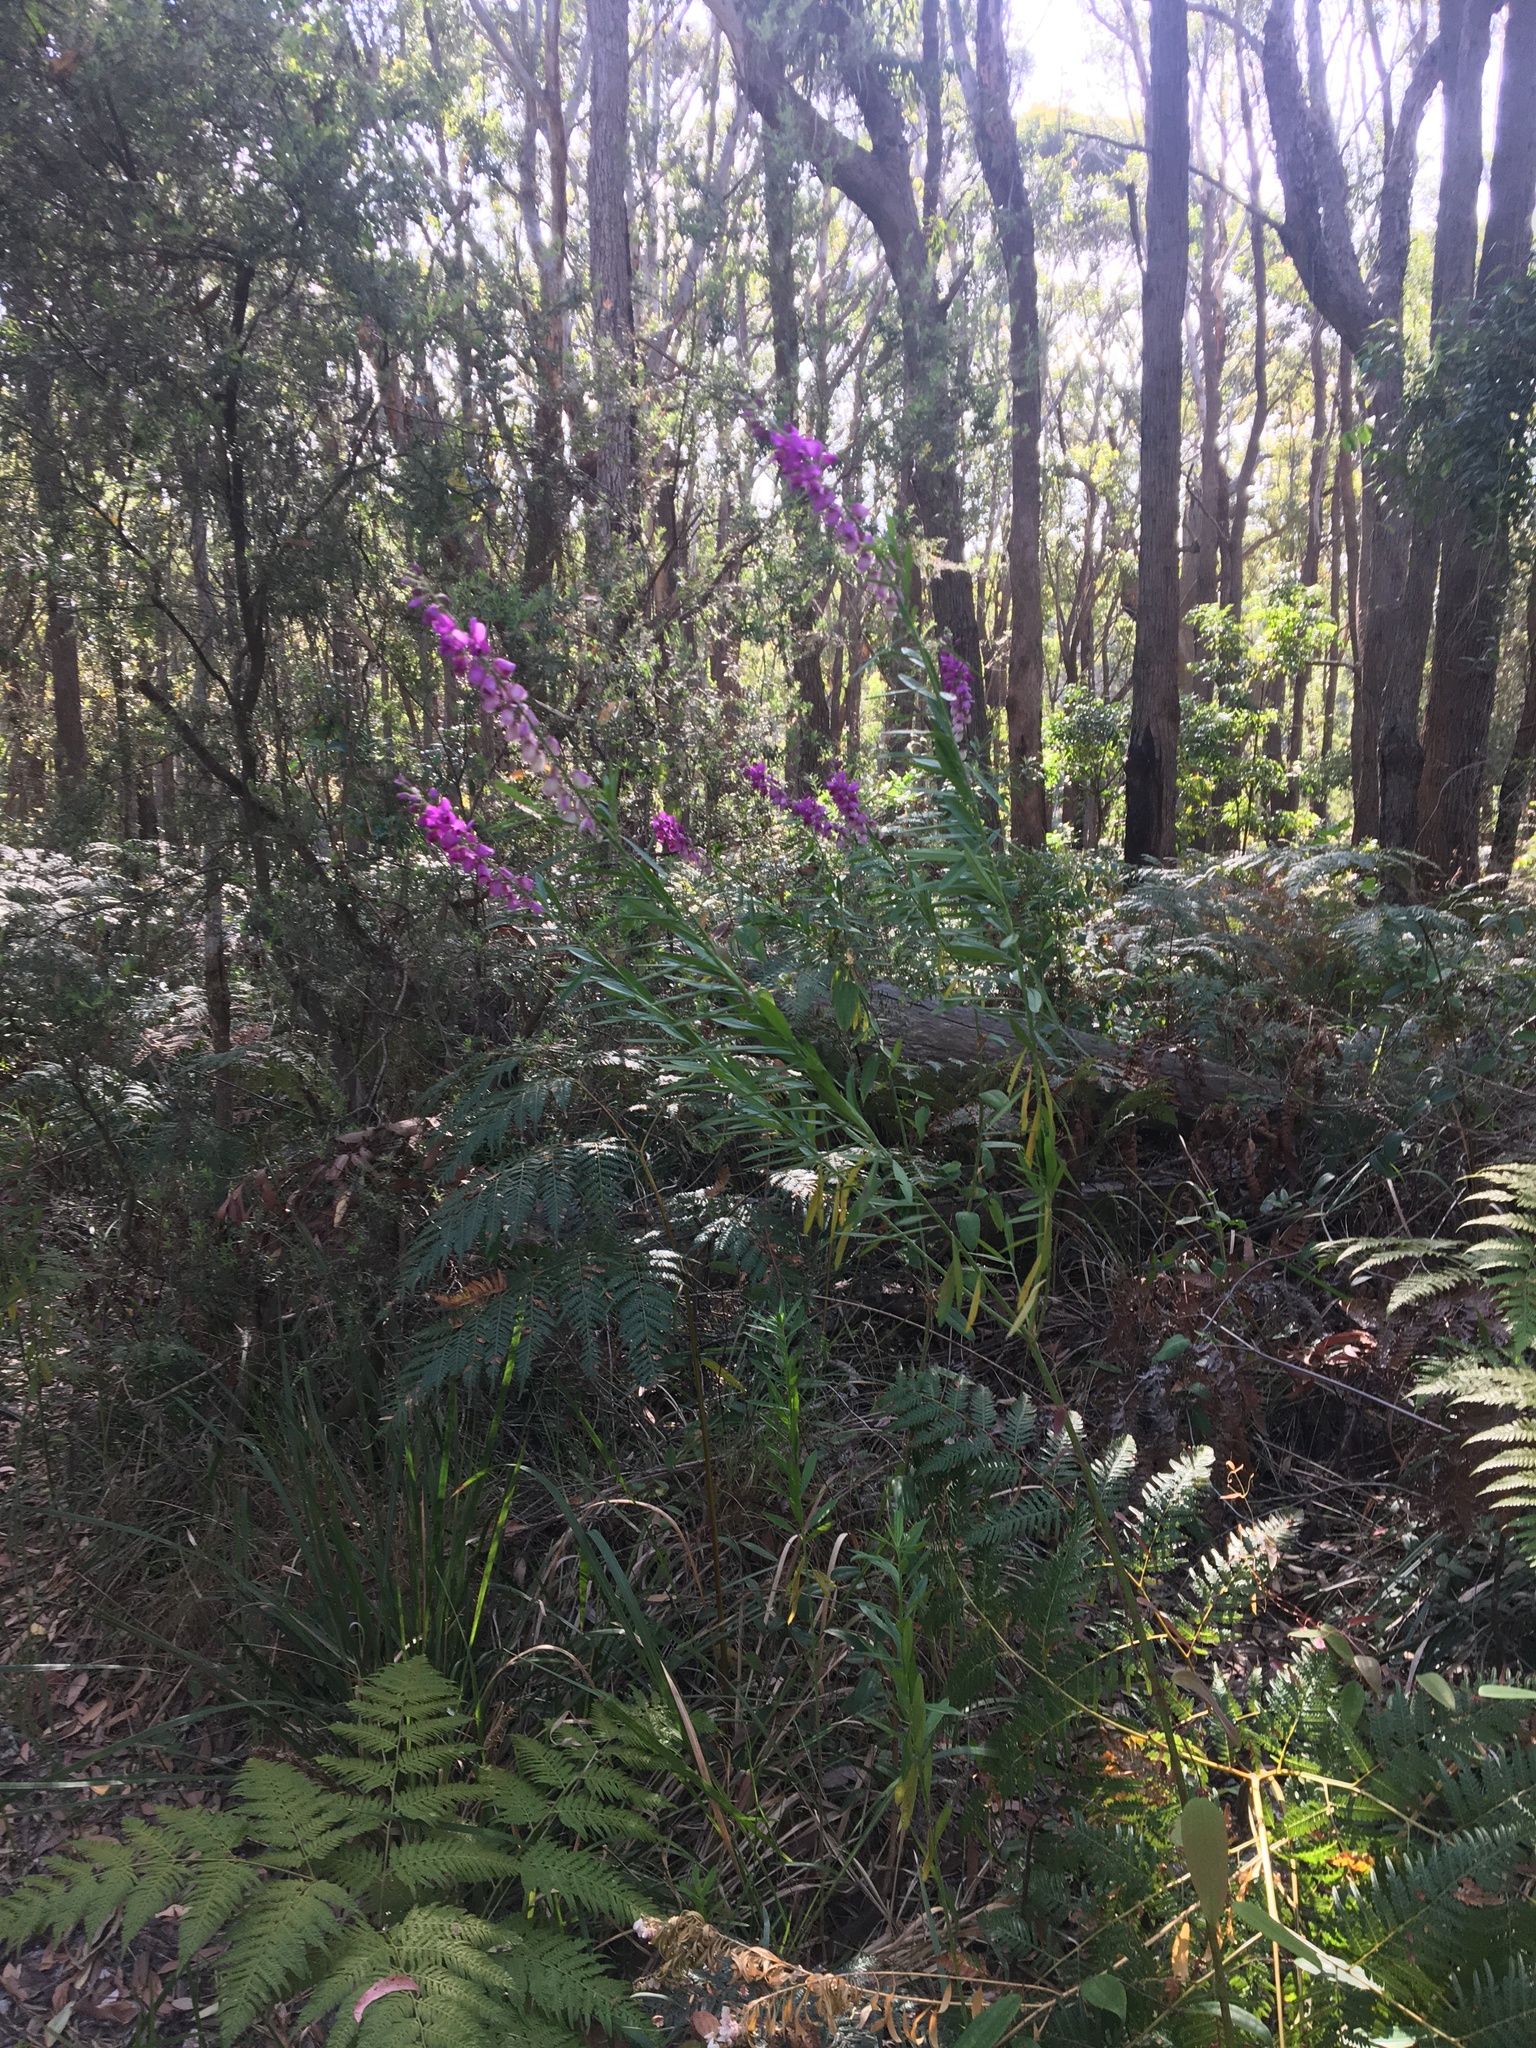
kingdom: Plantae
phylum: Tracheophyta
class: Magnoliopsida
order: Fabales
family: Polygalaceae
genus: Polygala
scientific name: Polygala virgata
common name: Milkwort
